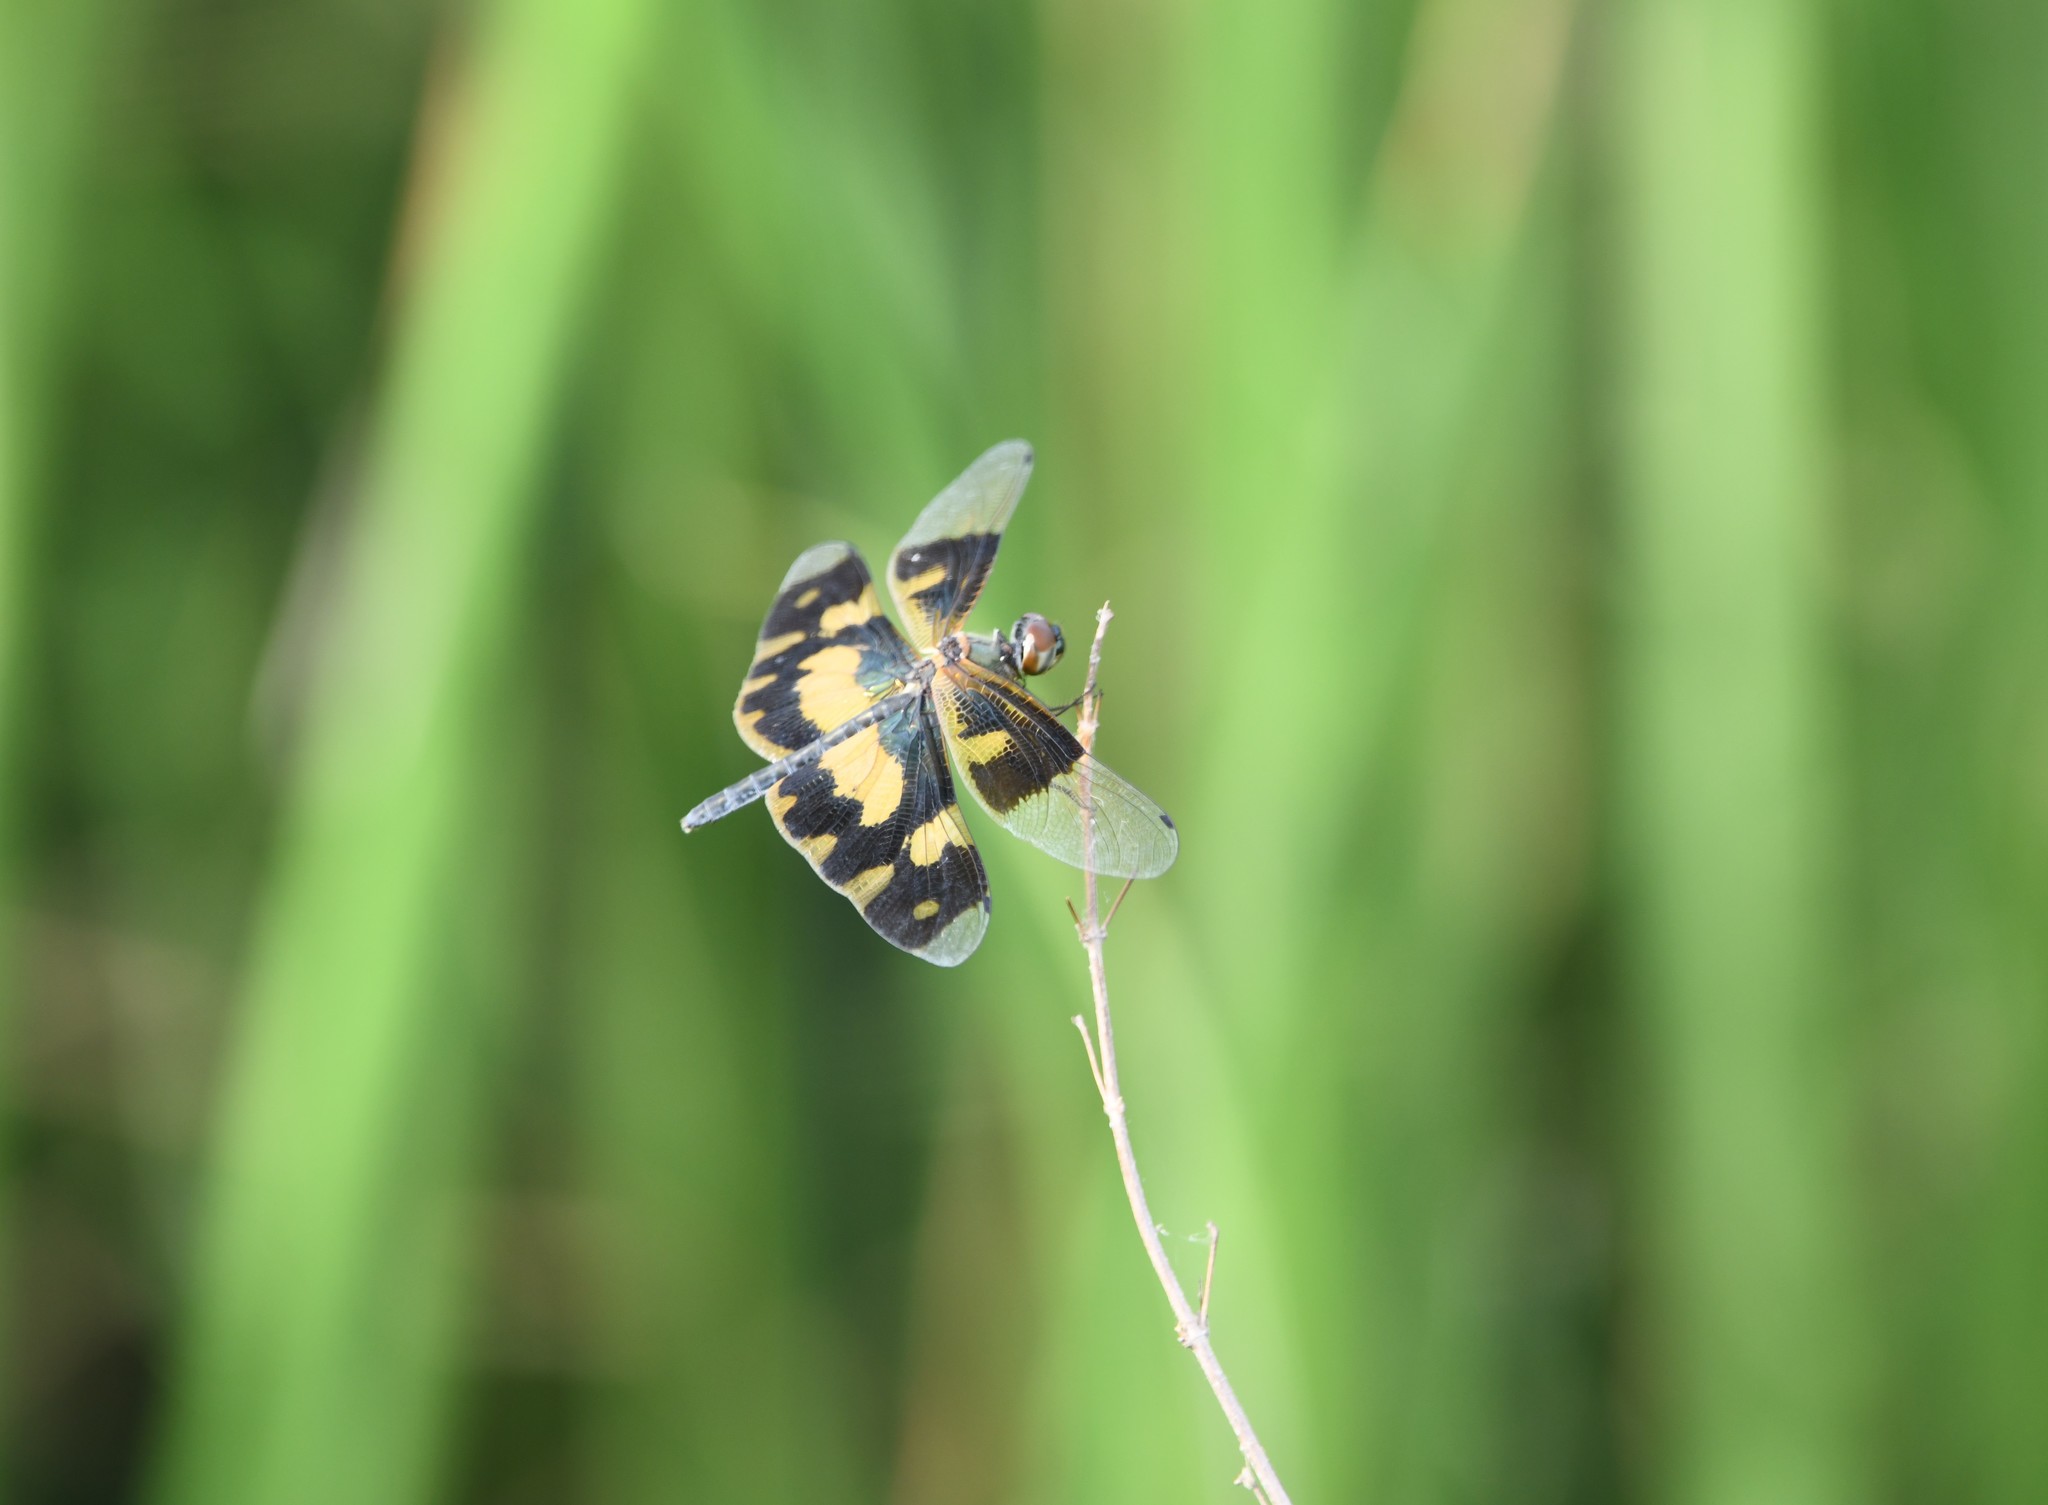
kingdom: Animalia
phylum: Arthropoda
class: Insecta
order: Odonata
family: Libellulidae
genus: Rhyothemis
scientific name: Rhyothemis variegata
